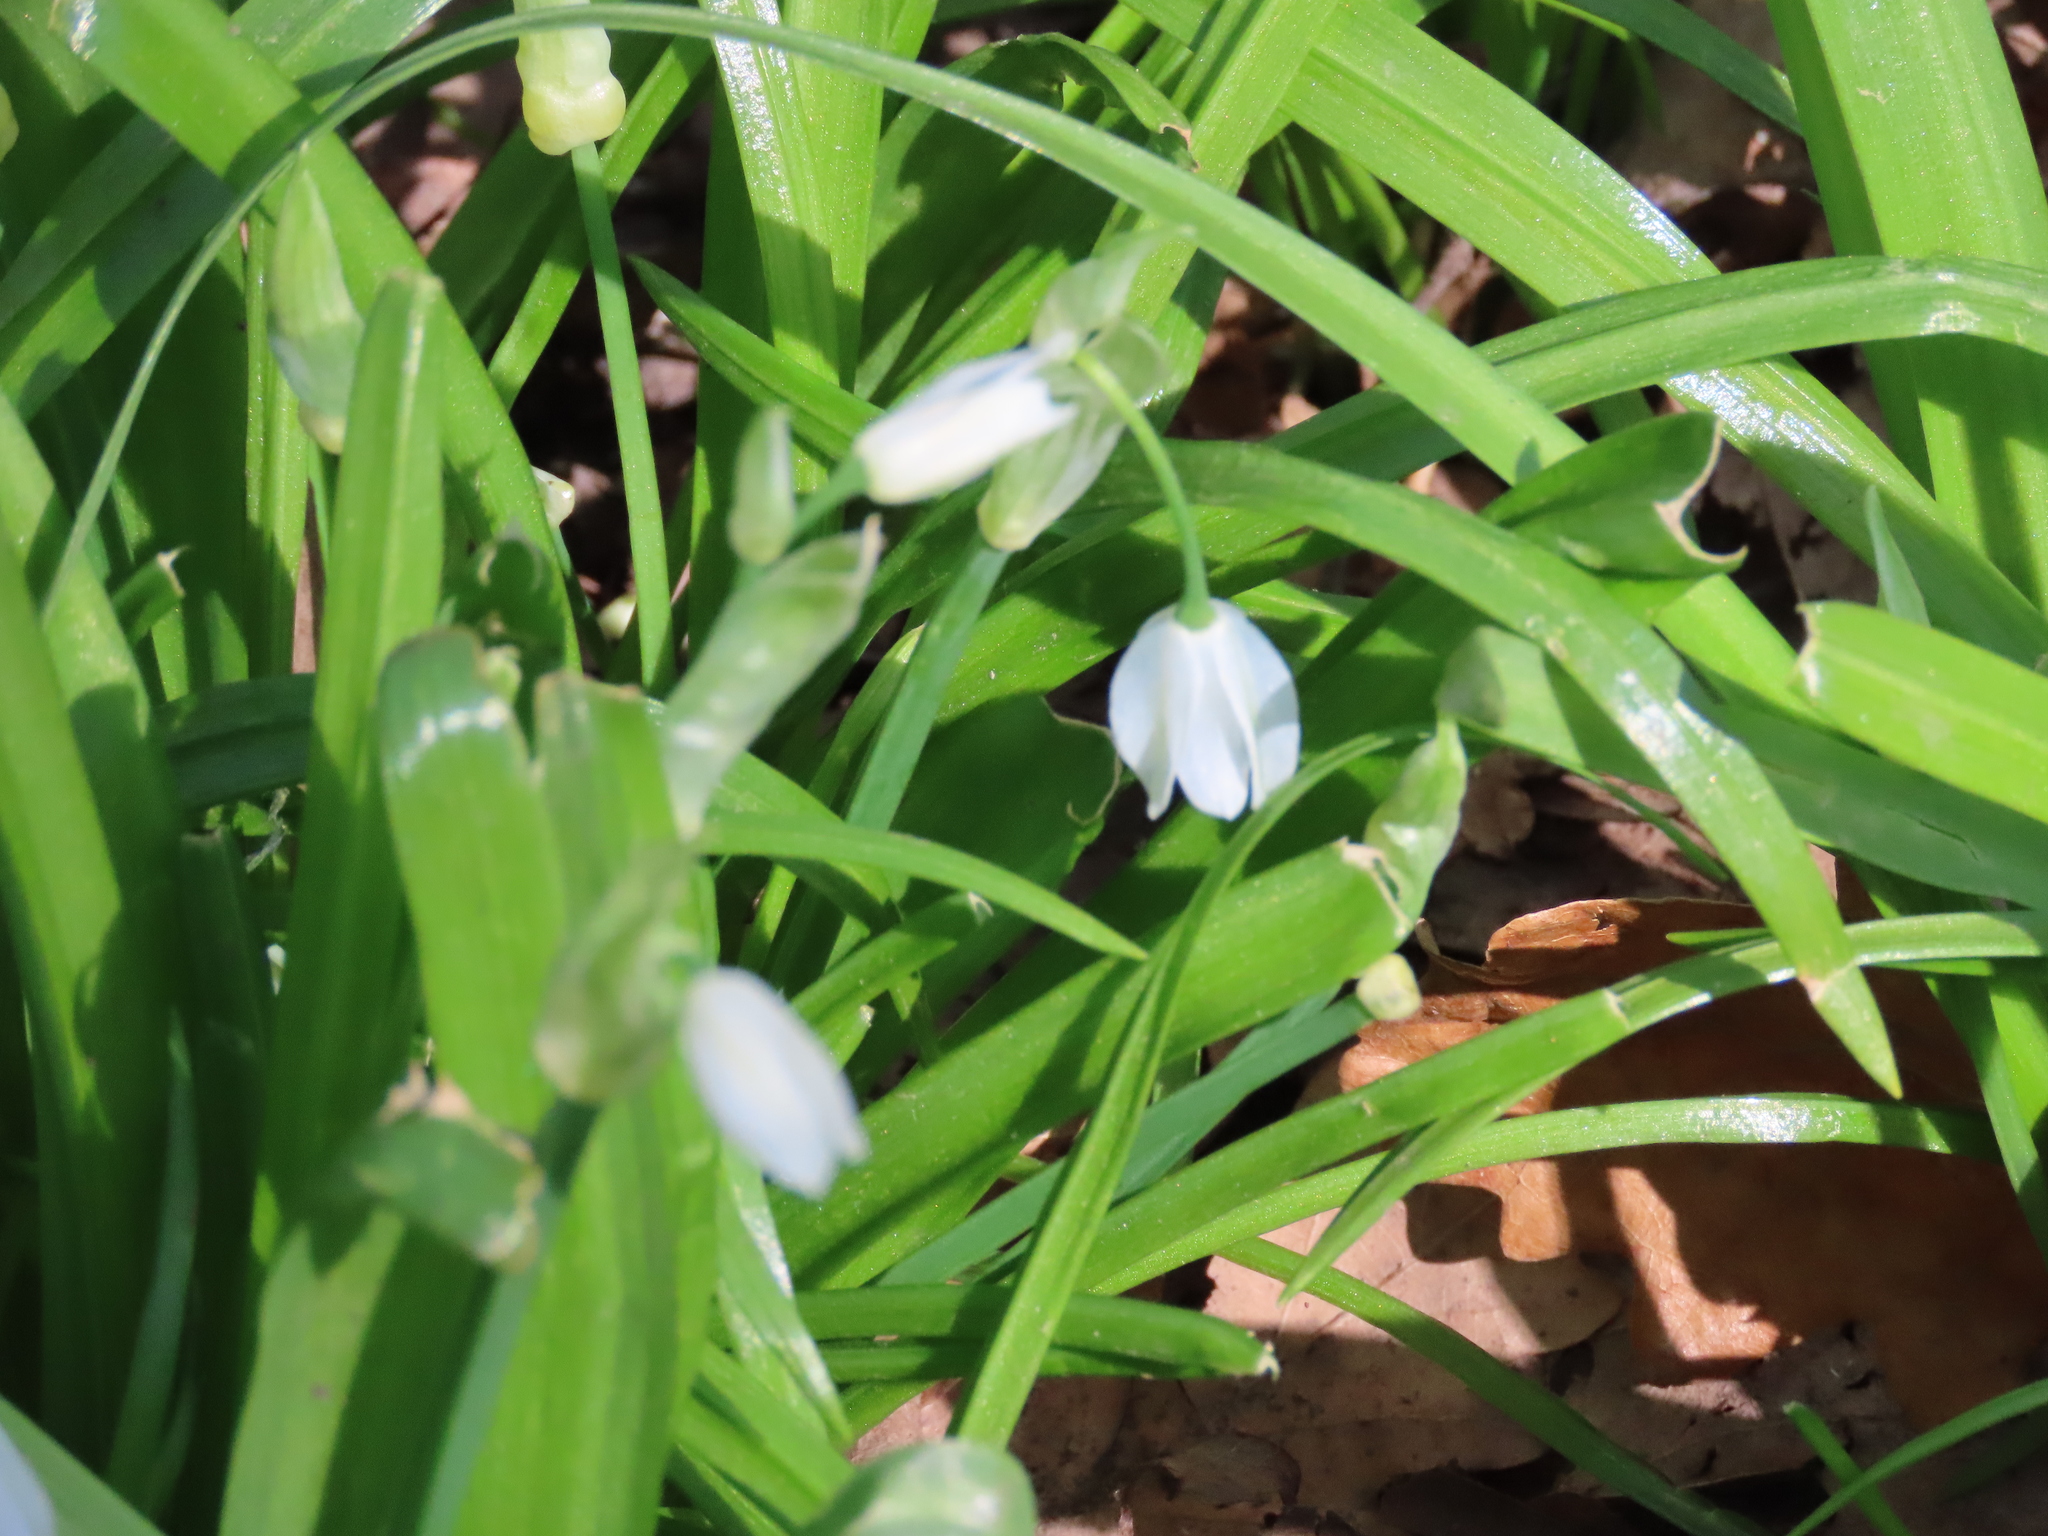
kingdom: Plantae
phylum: Tracheophyta
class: Liliopsida
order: Asparagales
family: Amaryllidaceae
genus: Allium
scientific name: Allium paradoxum
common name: Few-flowered garlic
